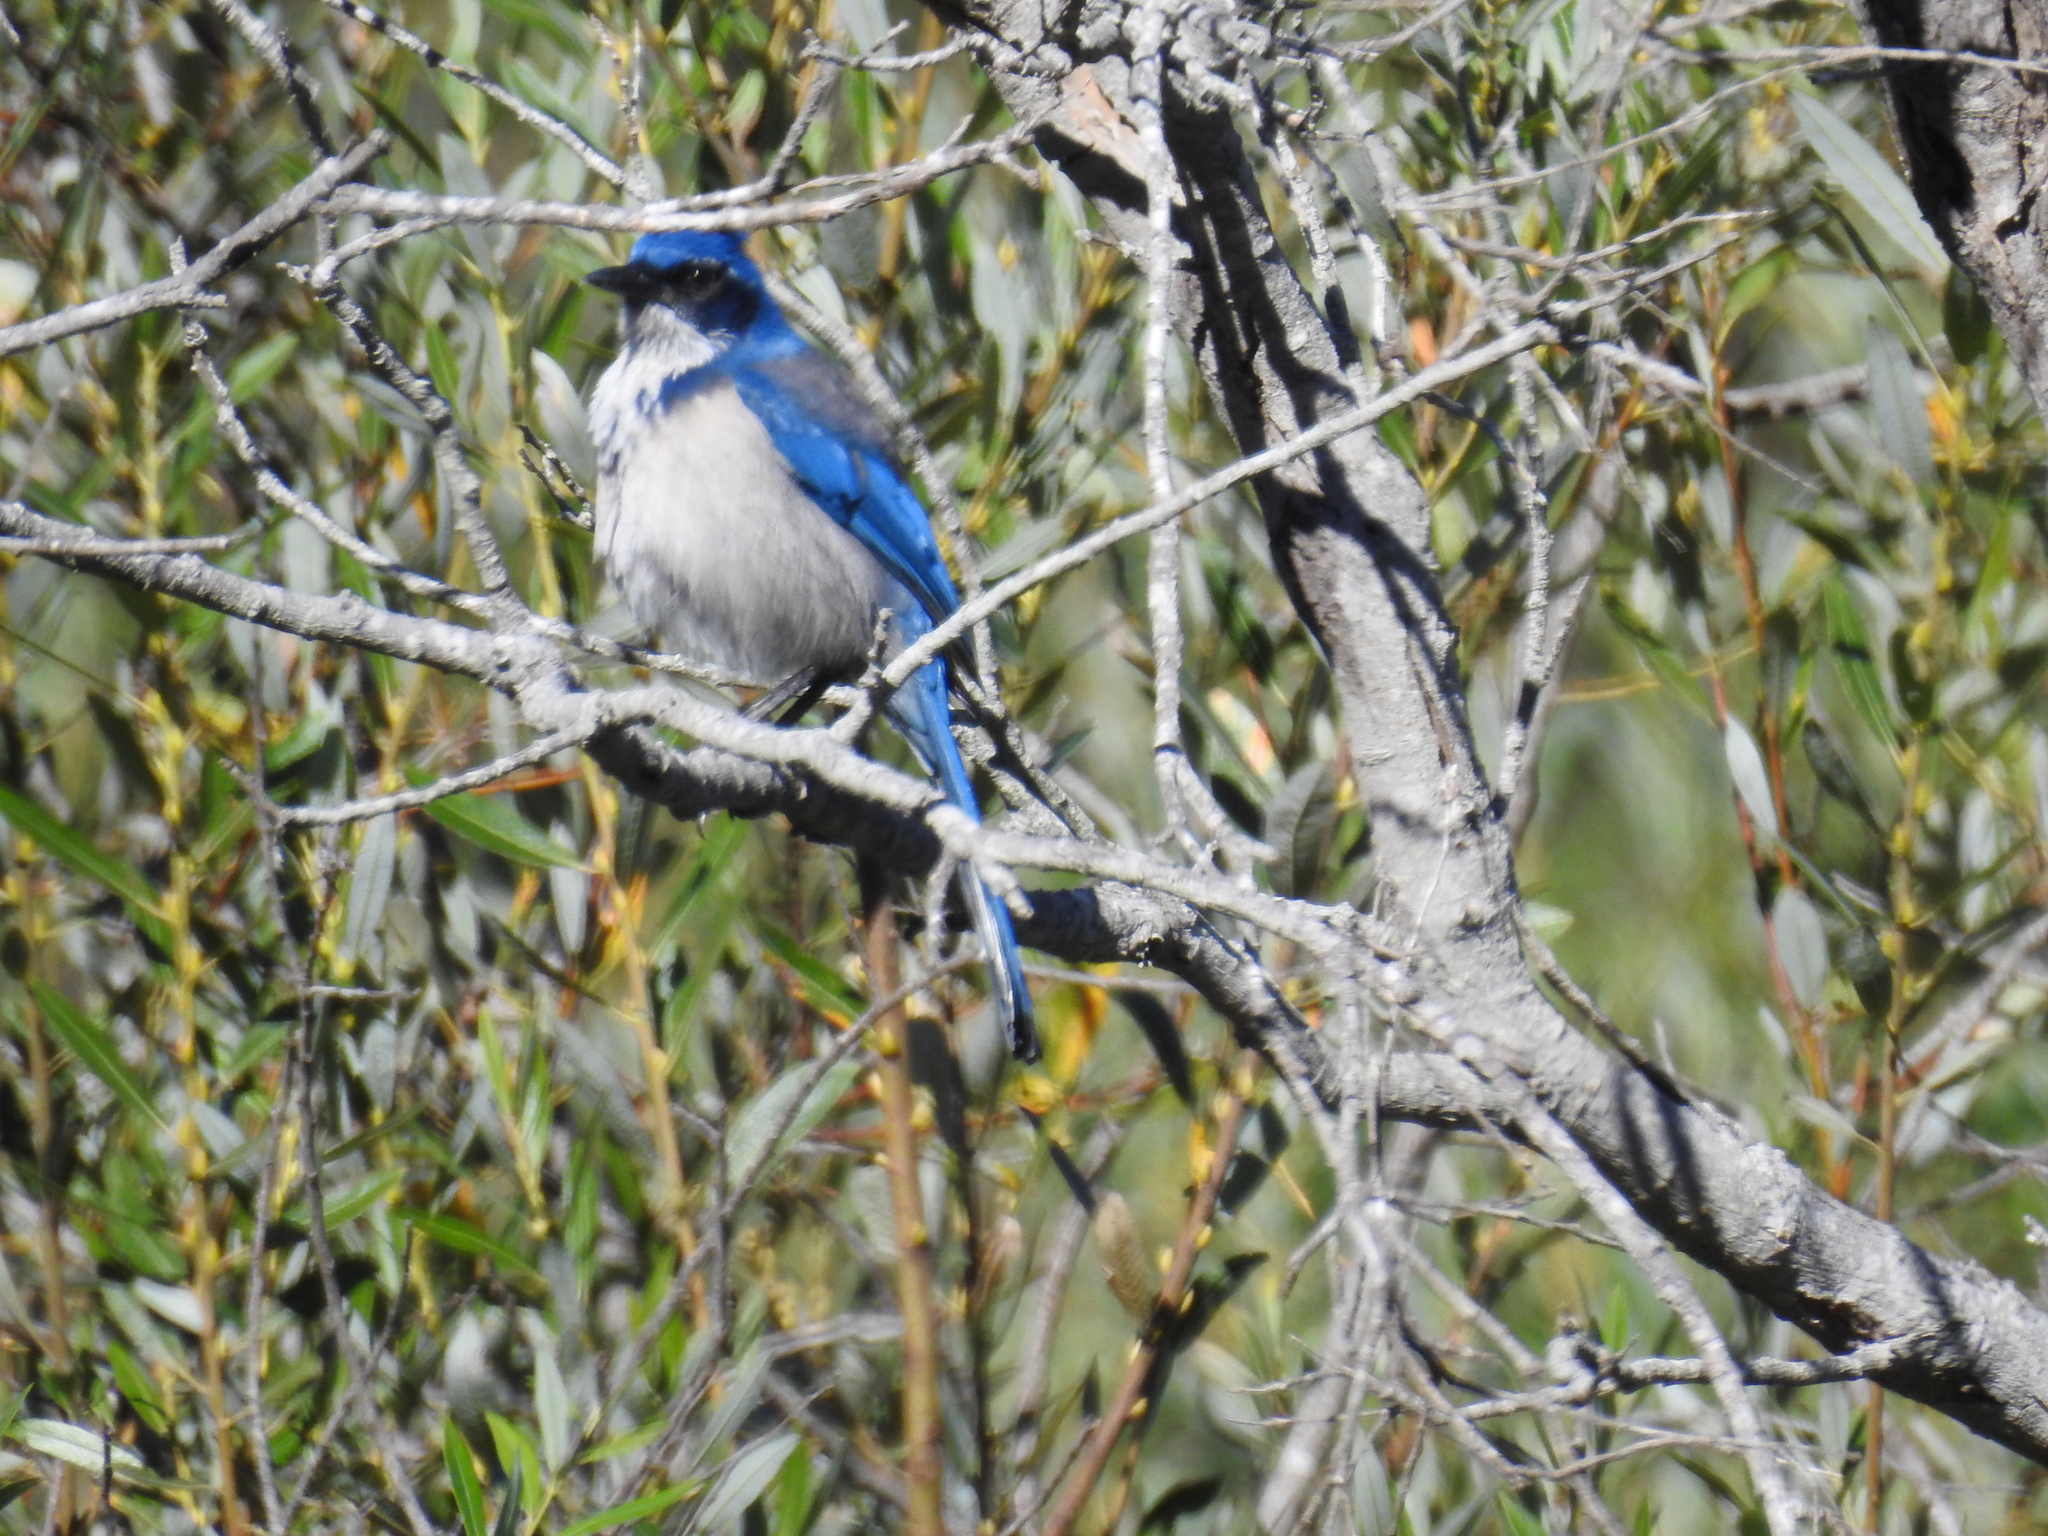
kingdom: Animalia
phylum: Chordata
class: Aves
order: Passeriformes
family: Corvidae
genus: Aphelocoma
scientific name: Aphelocoma insularis
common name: Island scrub-jay
